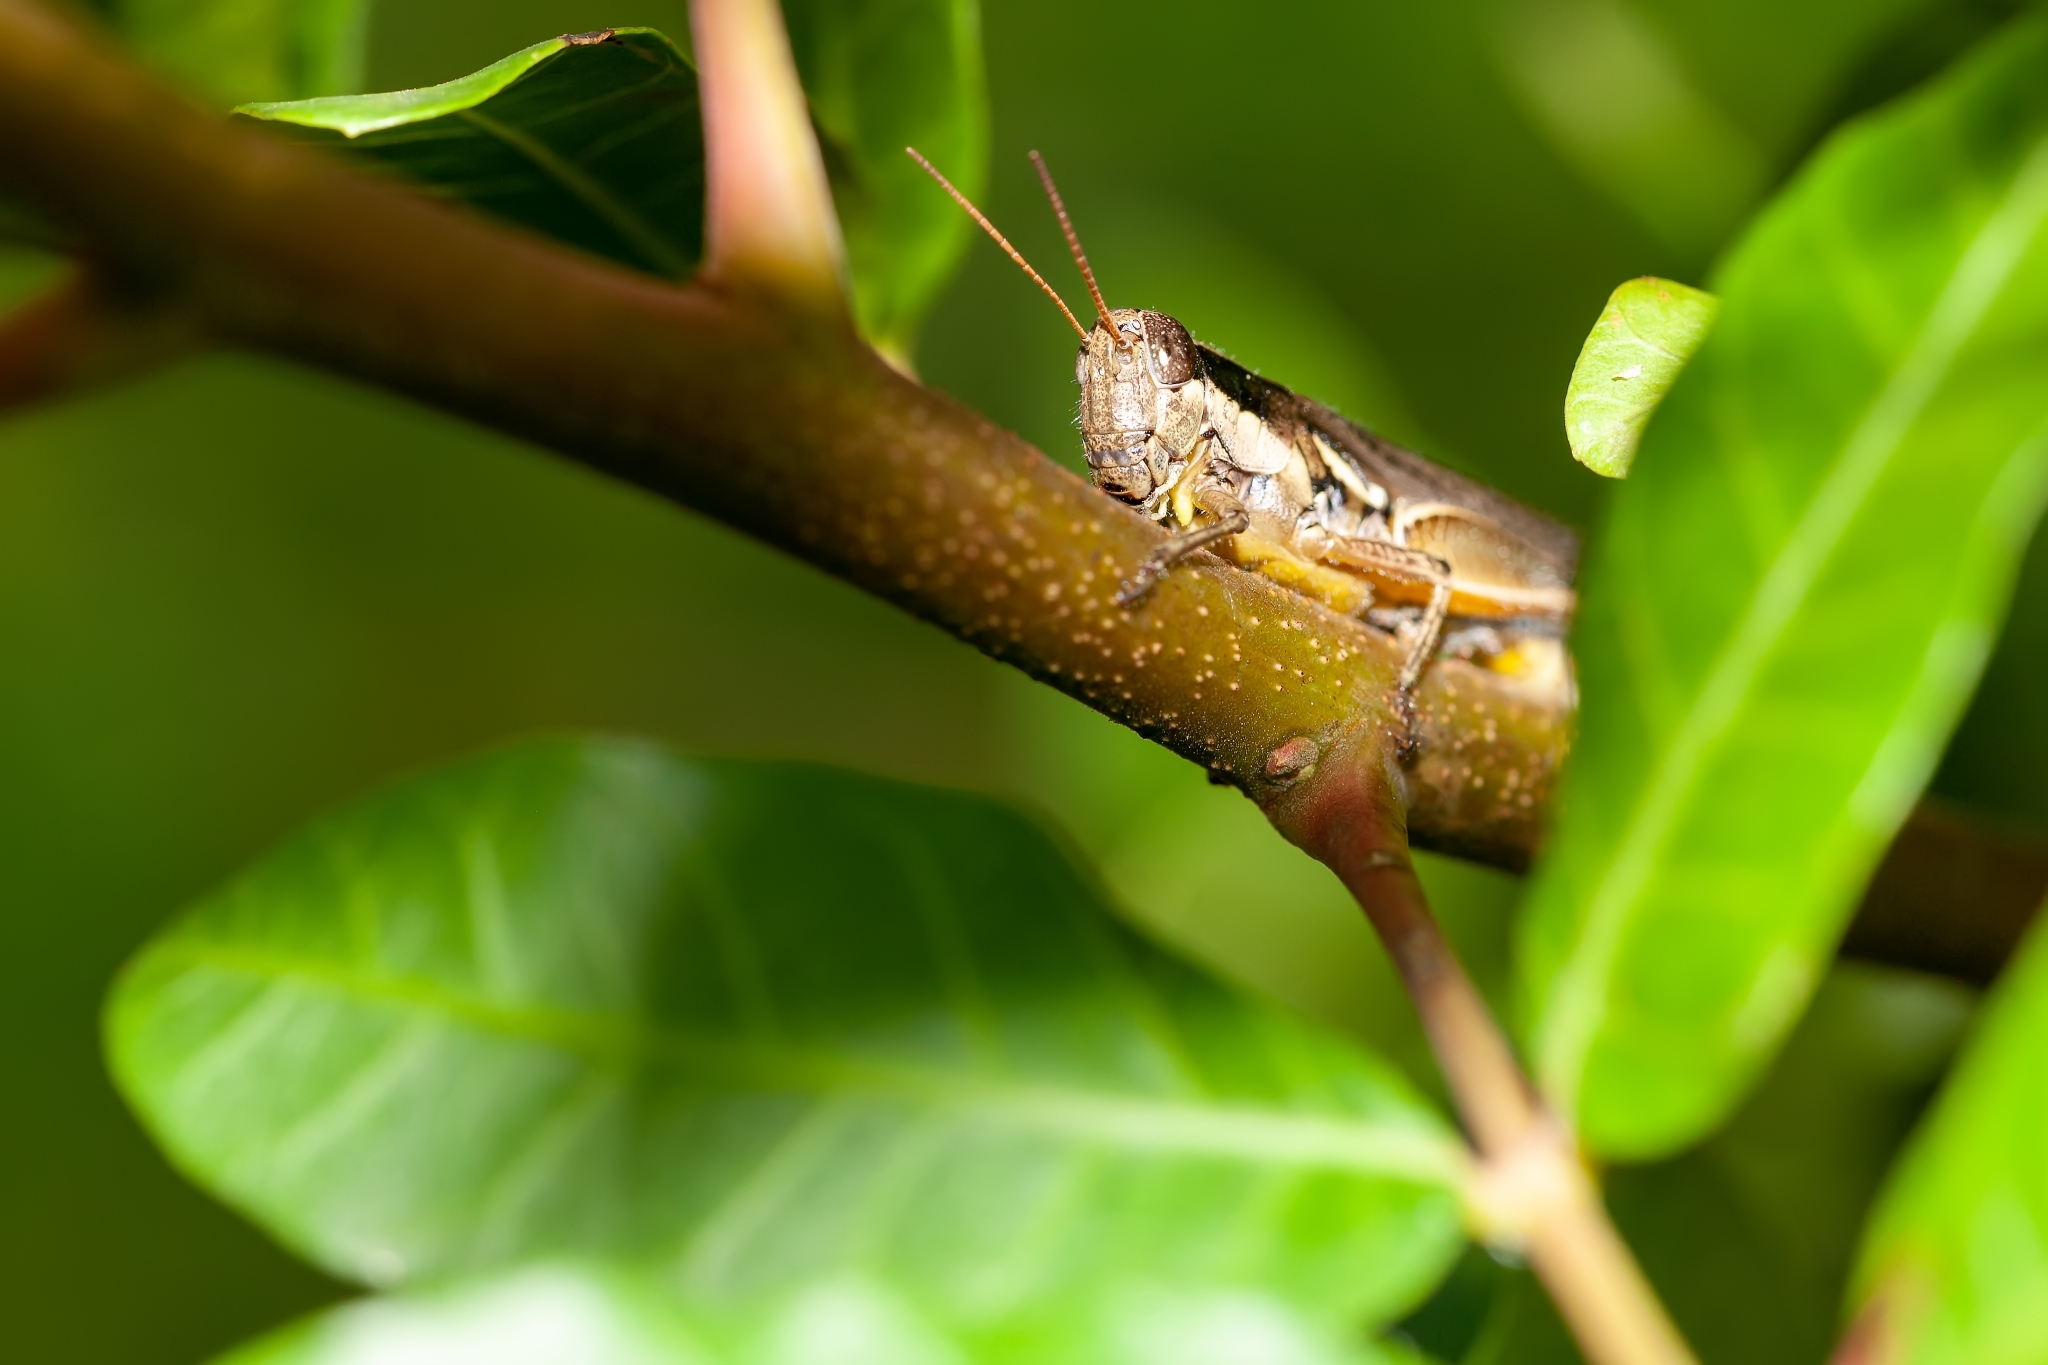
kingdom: Animalia
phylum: Arthropoda
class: Insecta
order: Orthoptera
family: Acrididae
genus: Paroxya
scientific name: Paroxya atlantica
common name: Atlantic grasshopper
